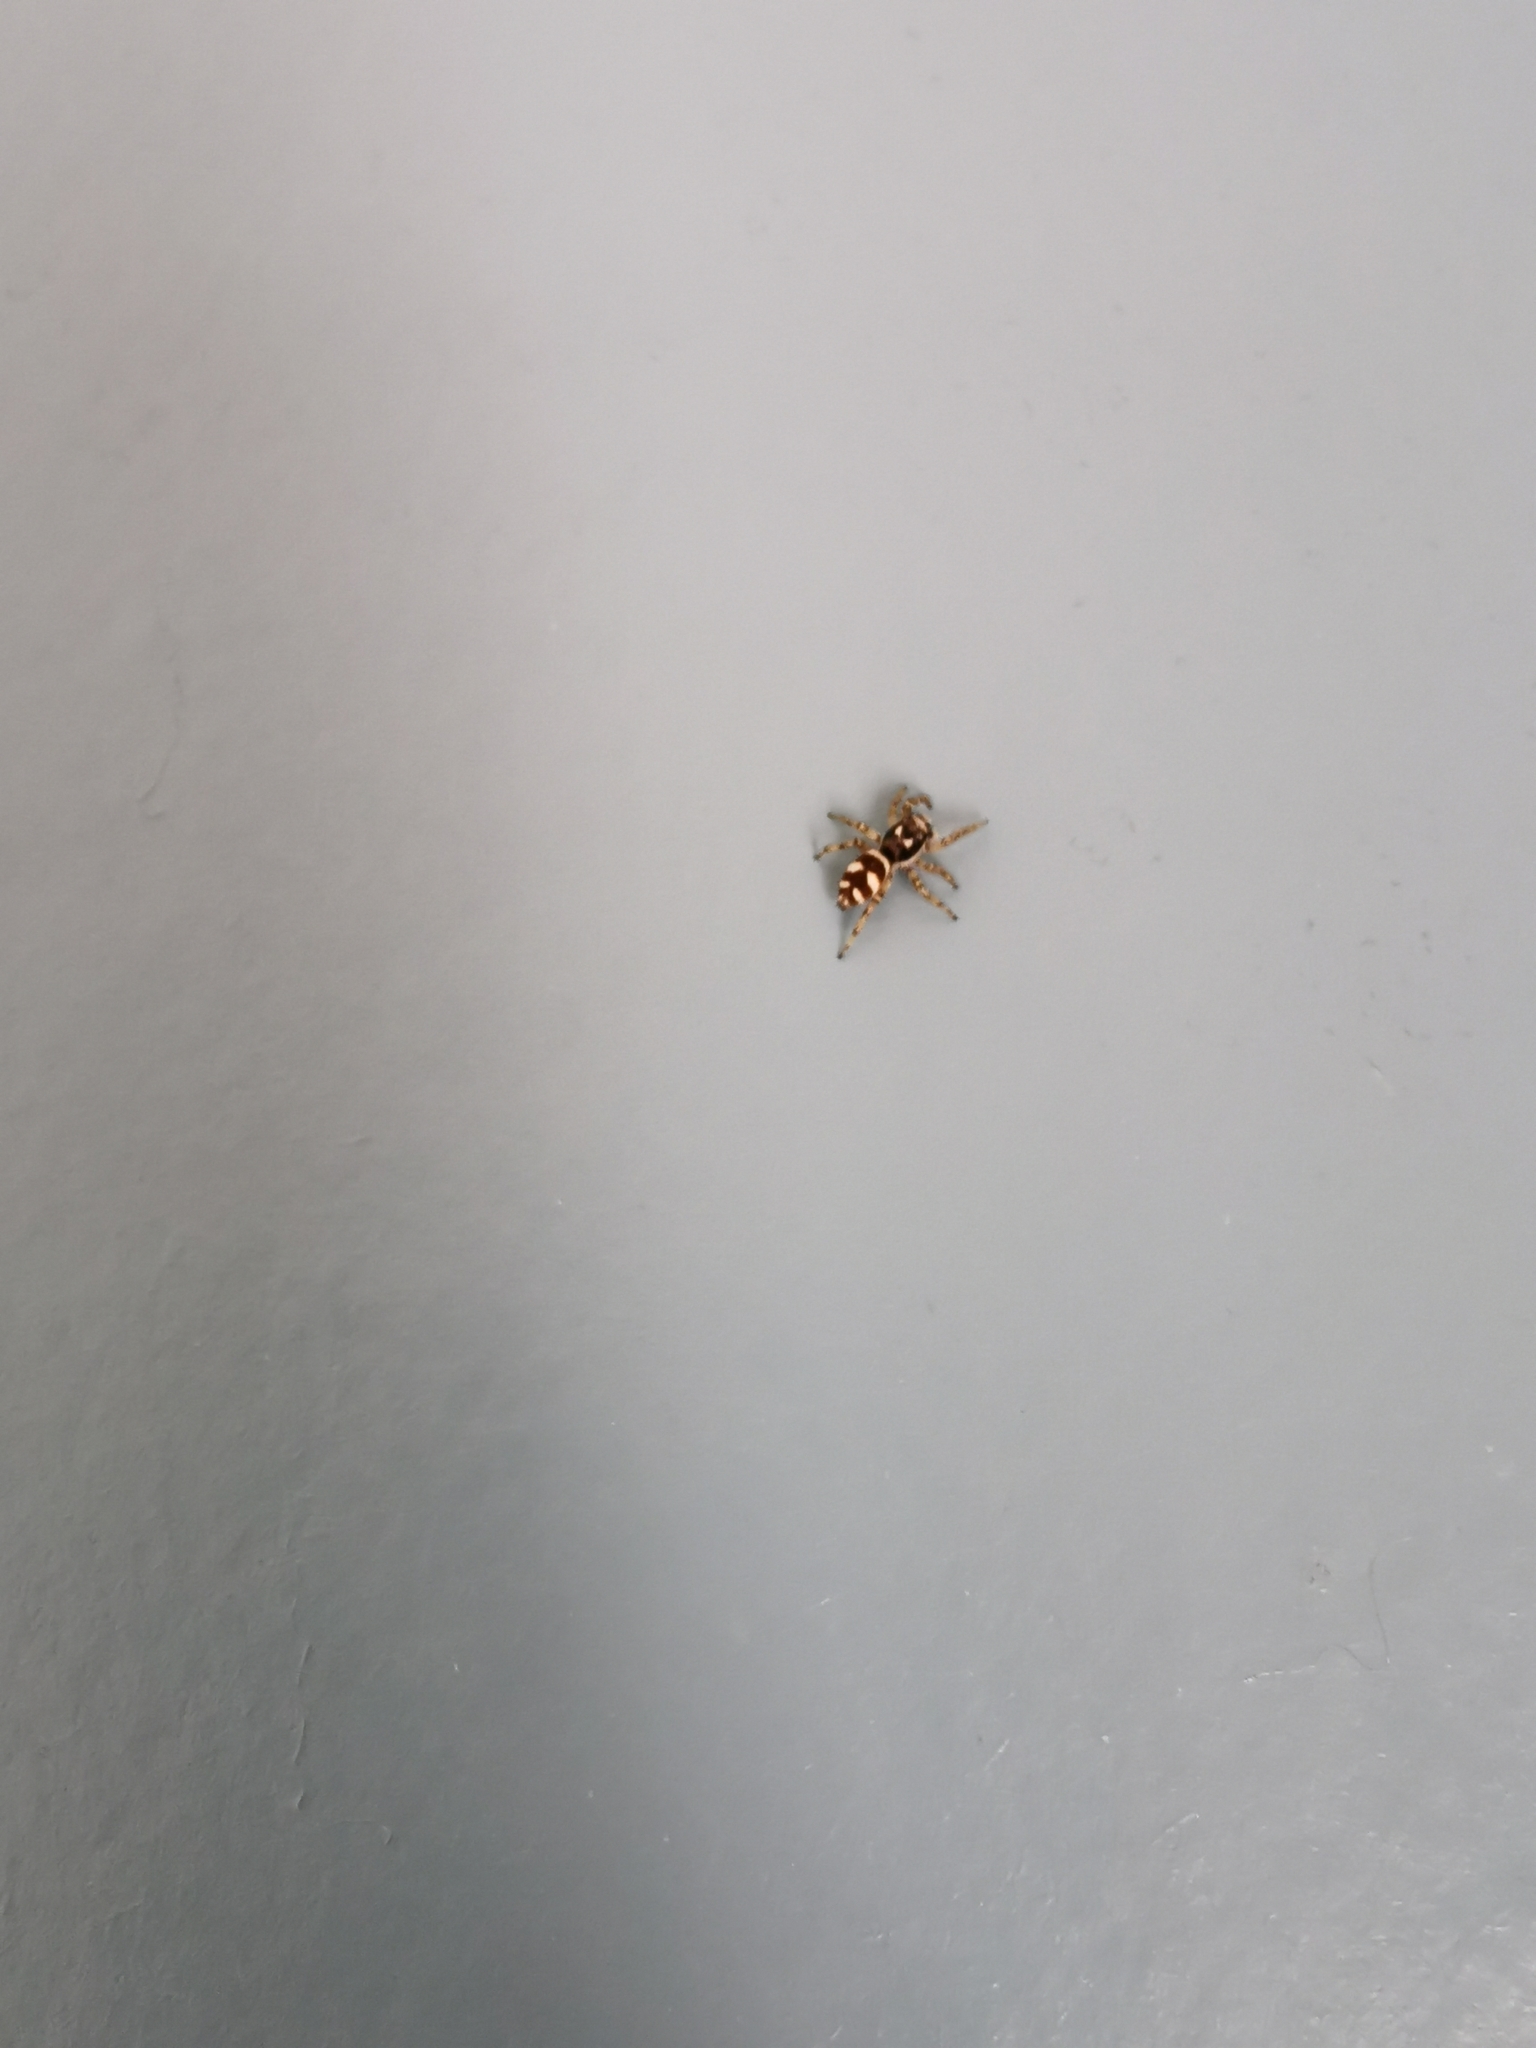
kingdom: Animalia
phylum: Arthropoda
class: Arachnida
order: Araneae
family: Salticidae
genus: Salticus
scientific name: Salticus scenicus
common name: Zebra jumper
